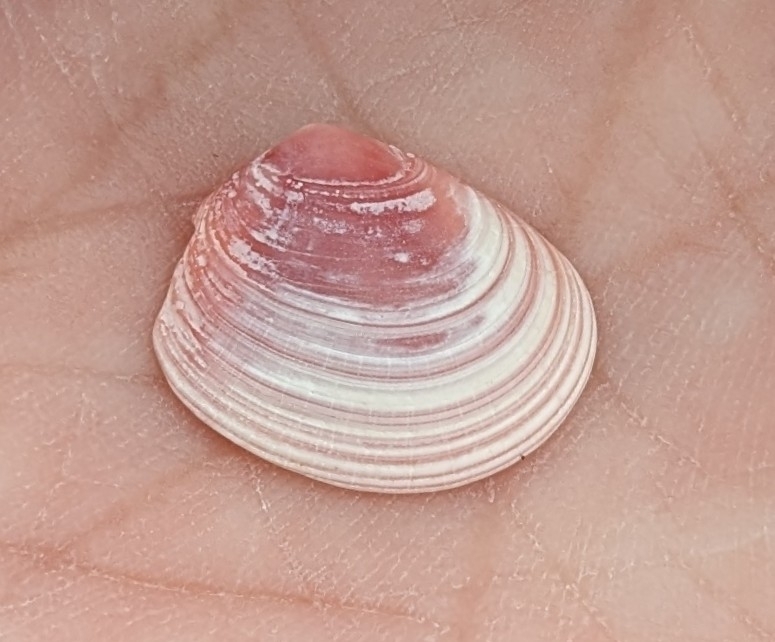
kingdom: Animalia
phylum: Mollusca
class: Bivalvia
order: Cardiida
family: Tellinidae
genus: Macoma
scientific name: Macoma petalum
